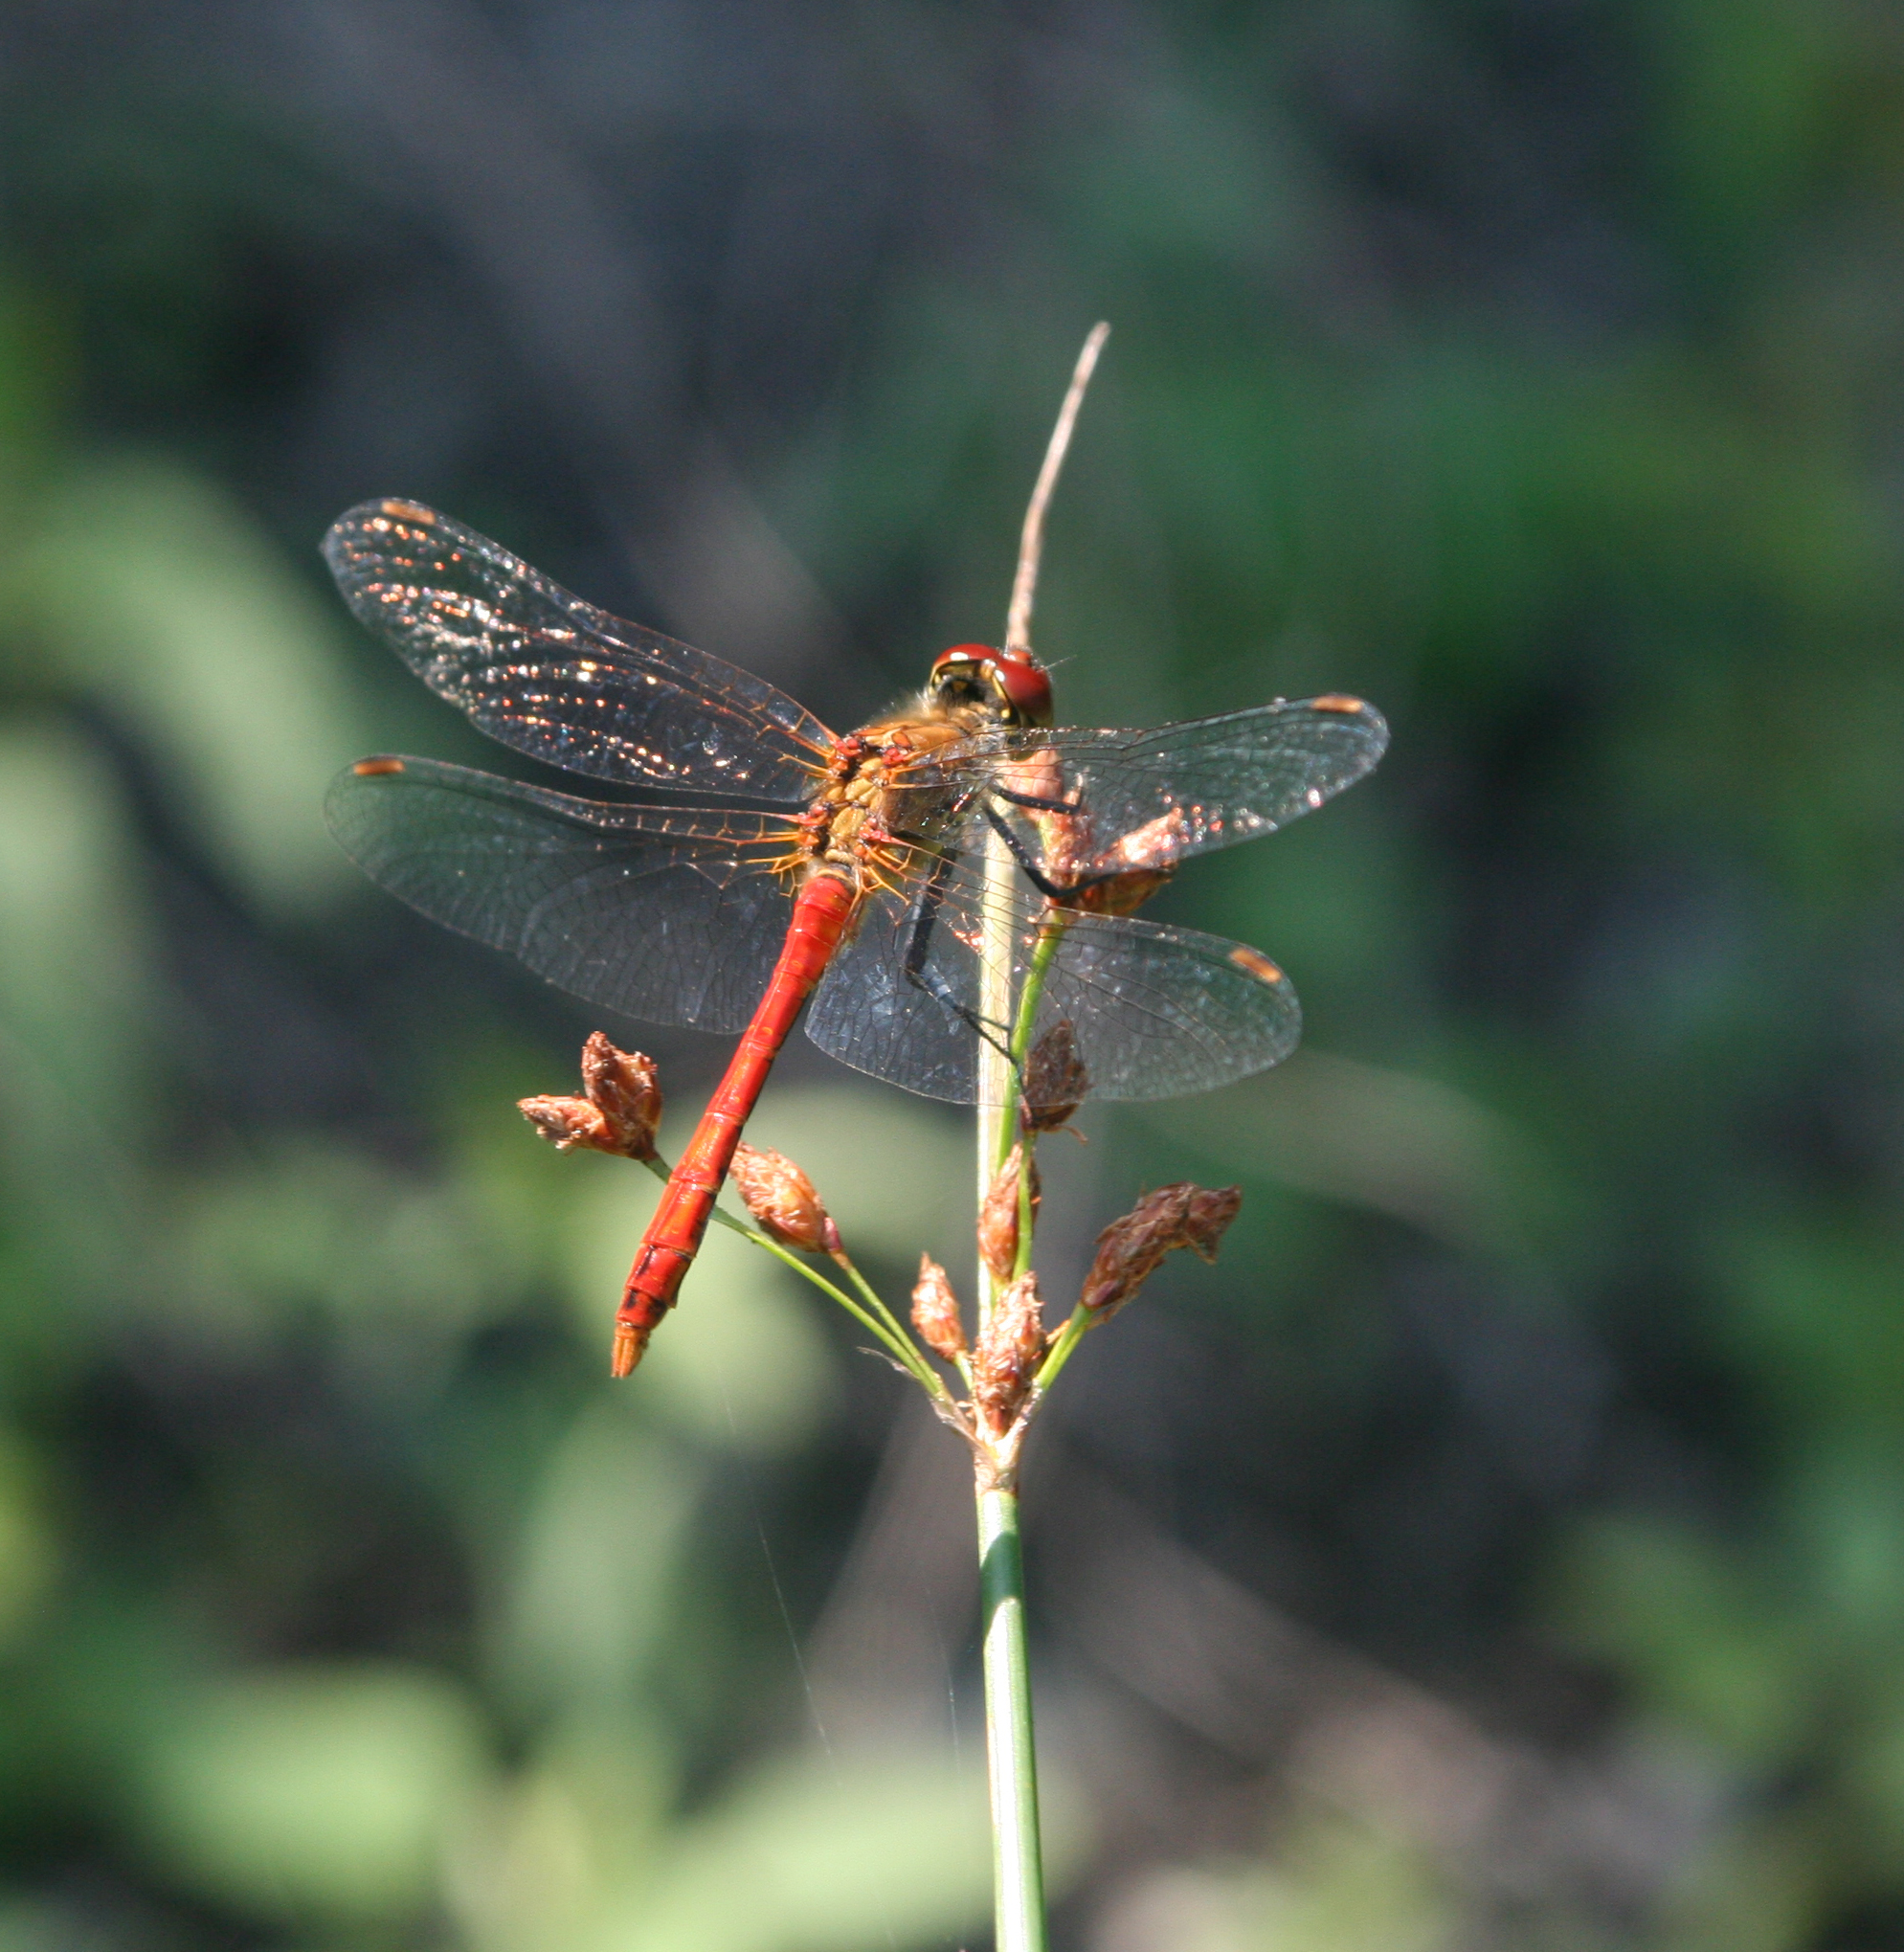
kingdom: Animalia
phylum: Arthropoda
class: Insecta
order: Odonata
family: Libellulidae
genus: Sympetrum
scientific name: Sympetrum sanguineum
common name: Ruddy darter
